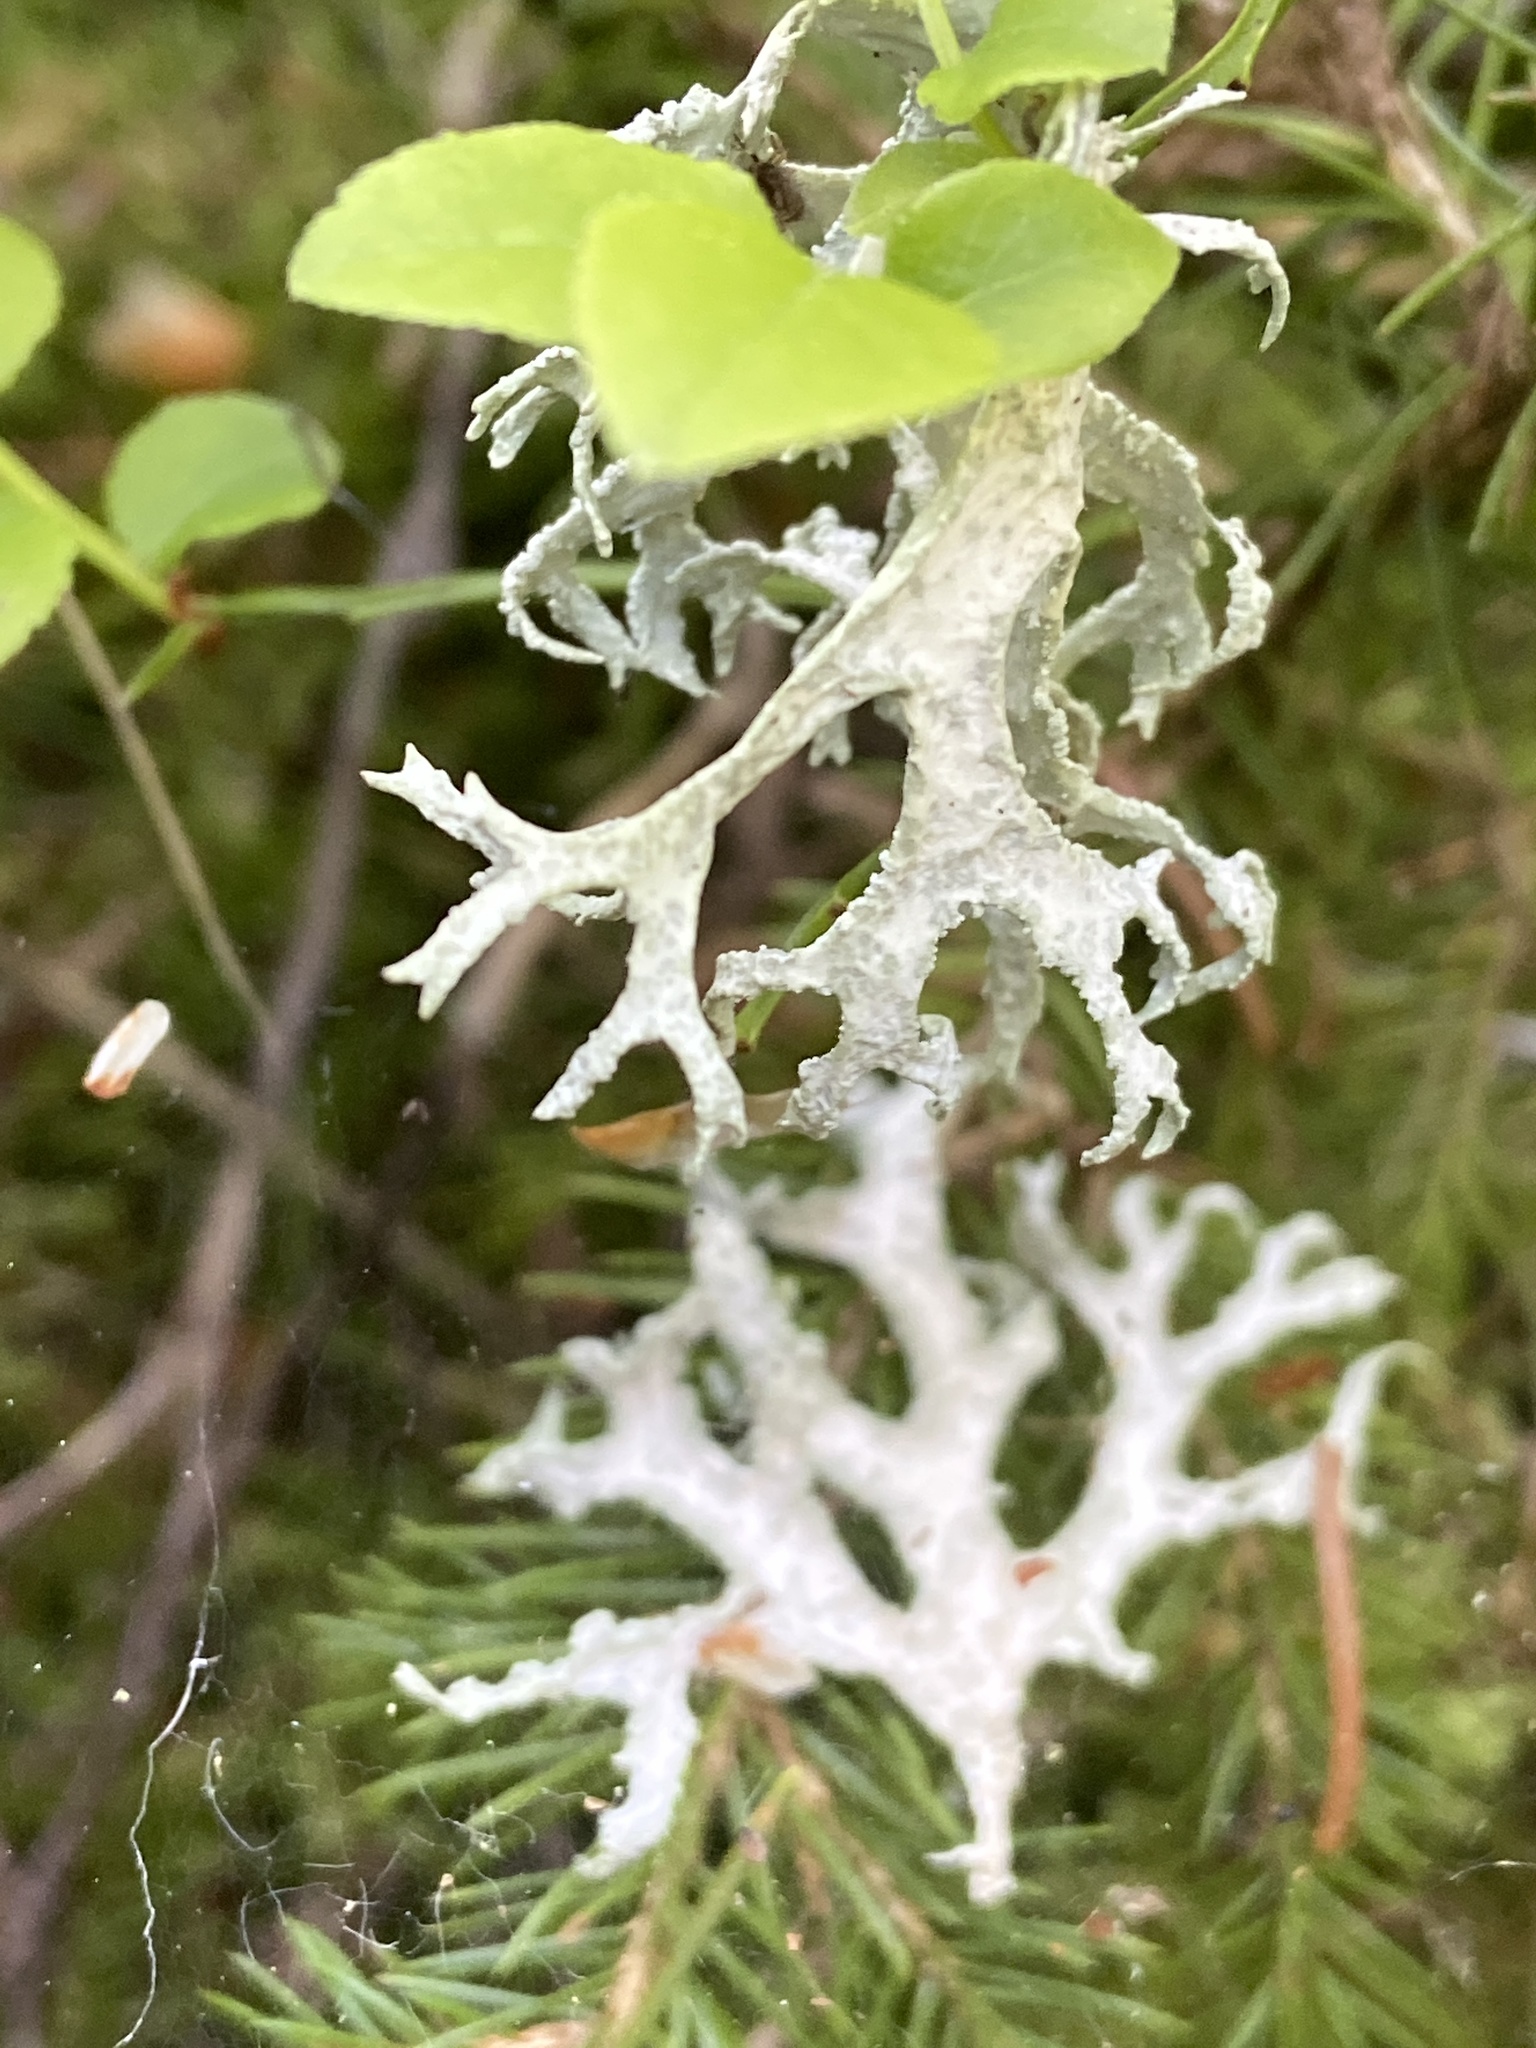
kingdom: Fungi
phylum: Ascomycota
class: Lecanoromycetes
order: Lecanorales
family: Parmeliaceae
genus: Evernia
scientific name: Evernia prunastri
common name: Oak moss
